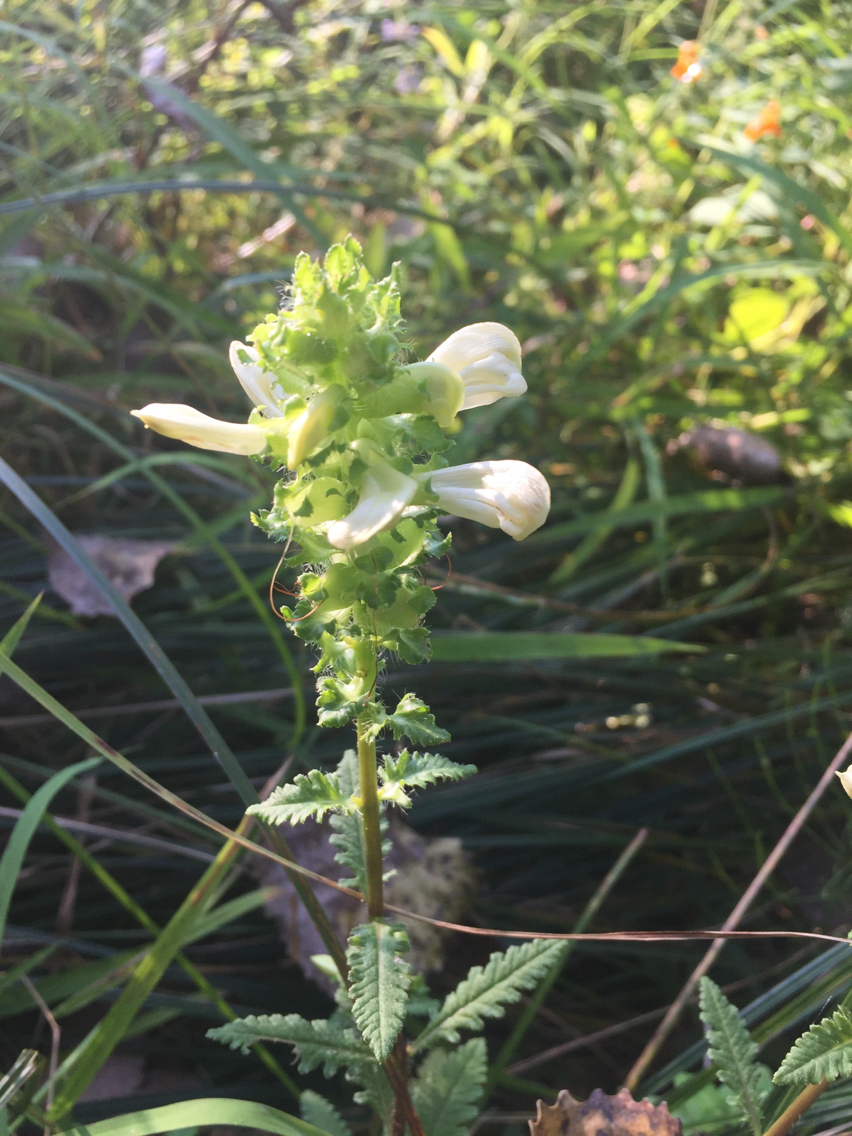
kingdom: Plantae
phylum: Tracheophyta
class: Magnoliopsida
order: Lamiales
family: Orobanchaceae
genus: Pedicularis
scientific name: Pedicularis lanceolata
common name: Swamp lousewort
